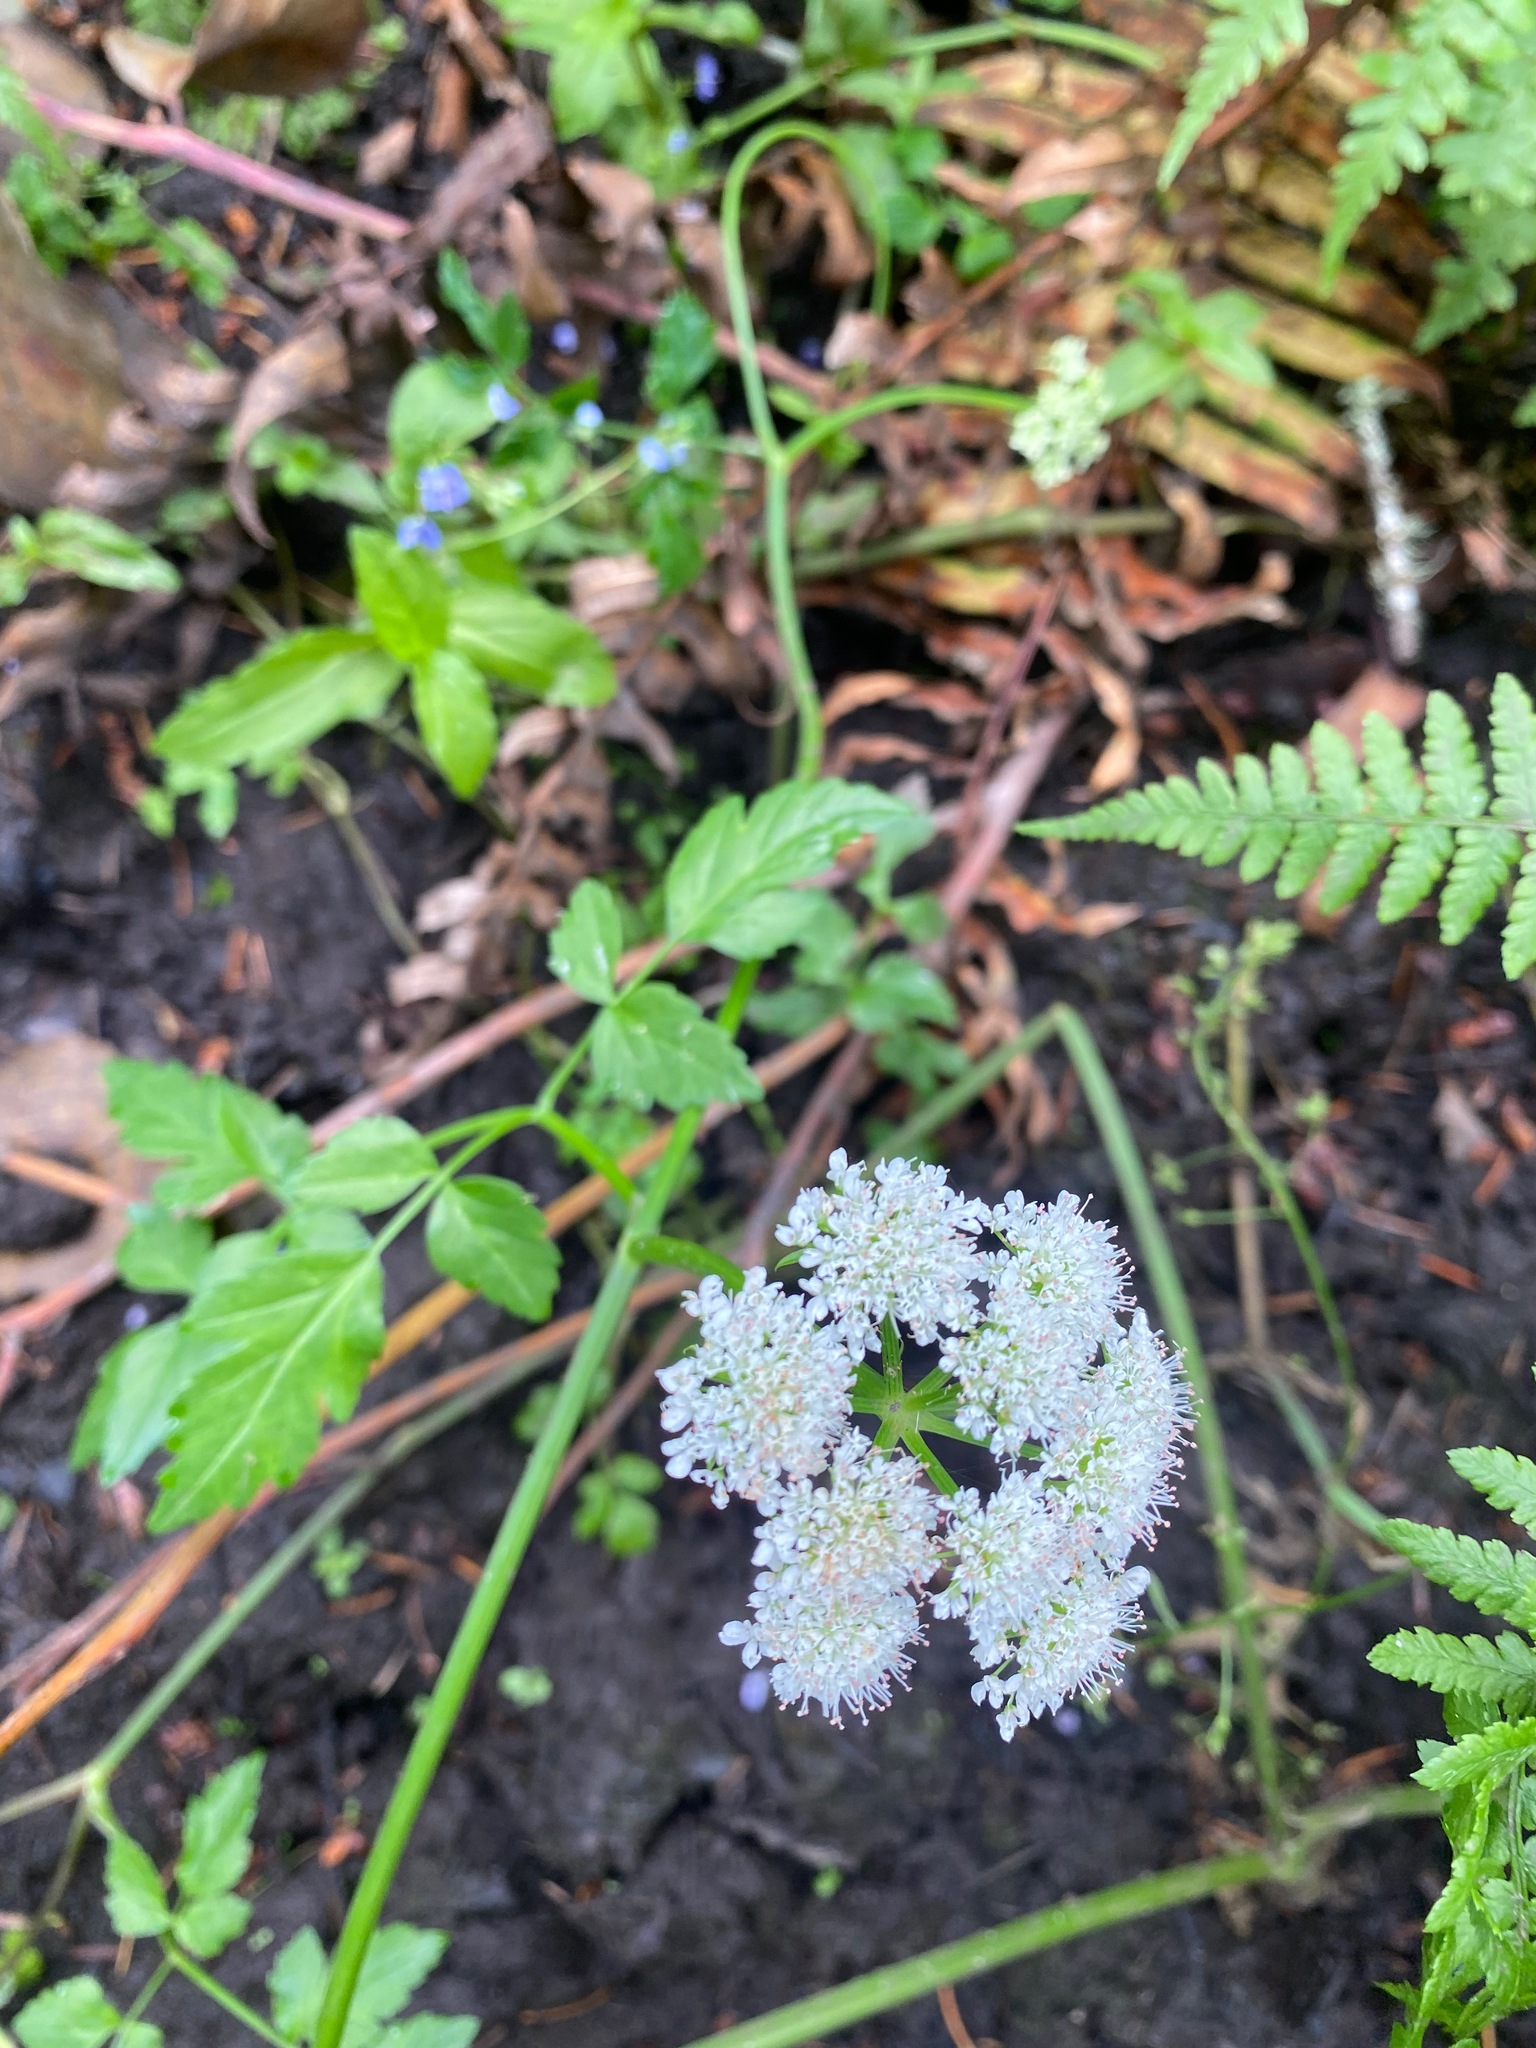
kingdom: Plantae
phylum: Tracheophyta
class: Magnoliopsida
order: Apiales
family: Apiaceae
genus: Oenanthe
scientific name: Oenanthe sarmentosa
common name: American water-parsley
